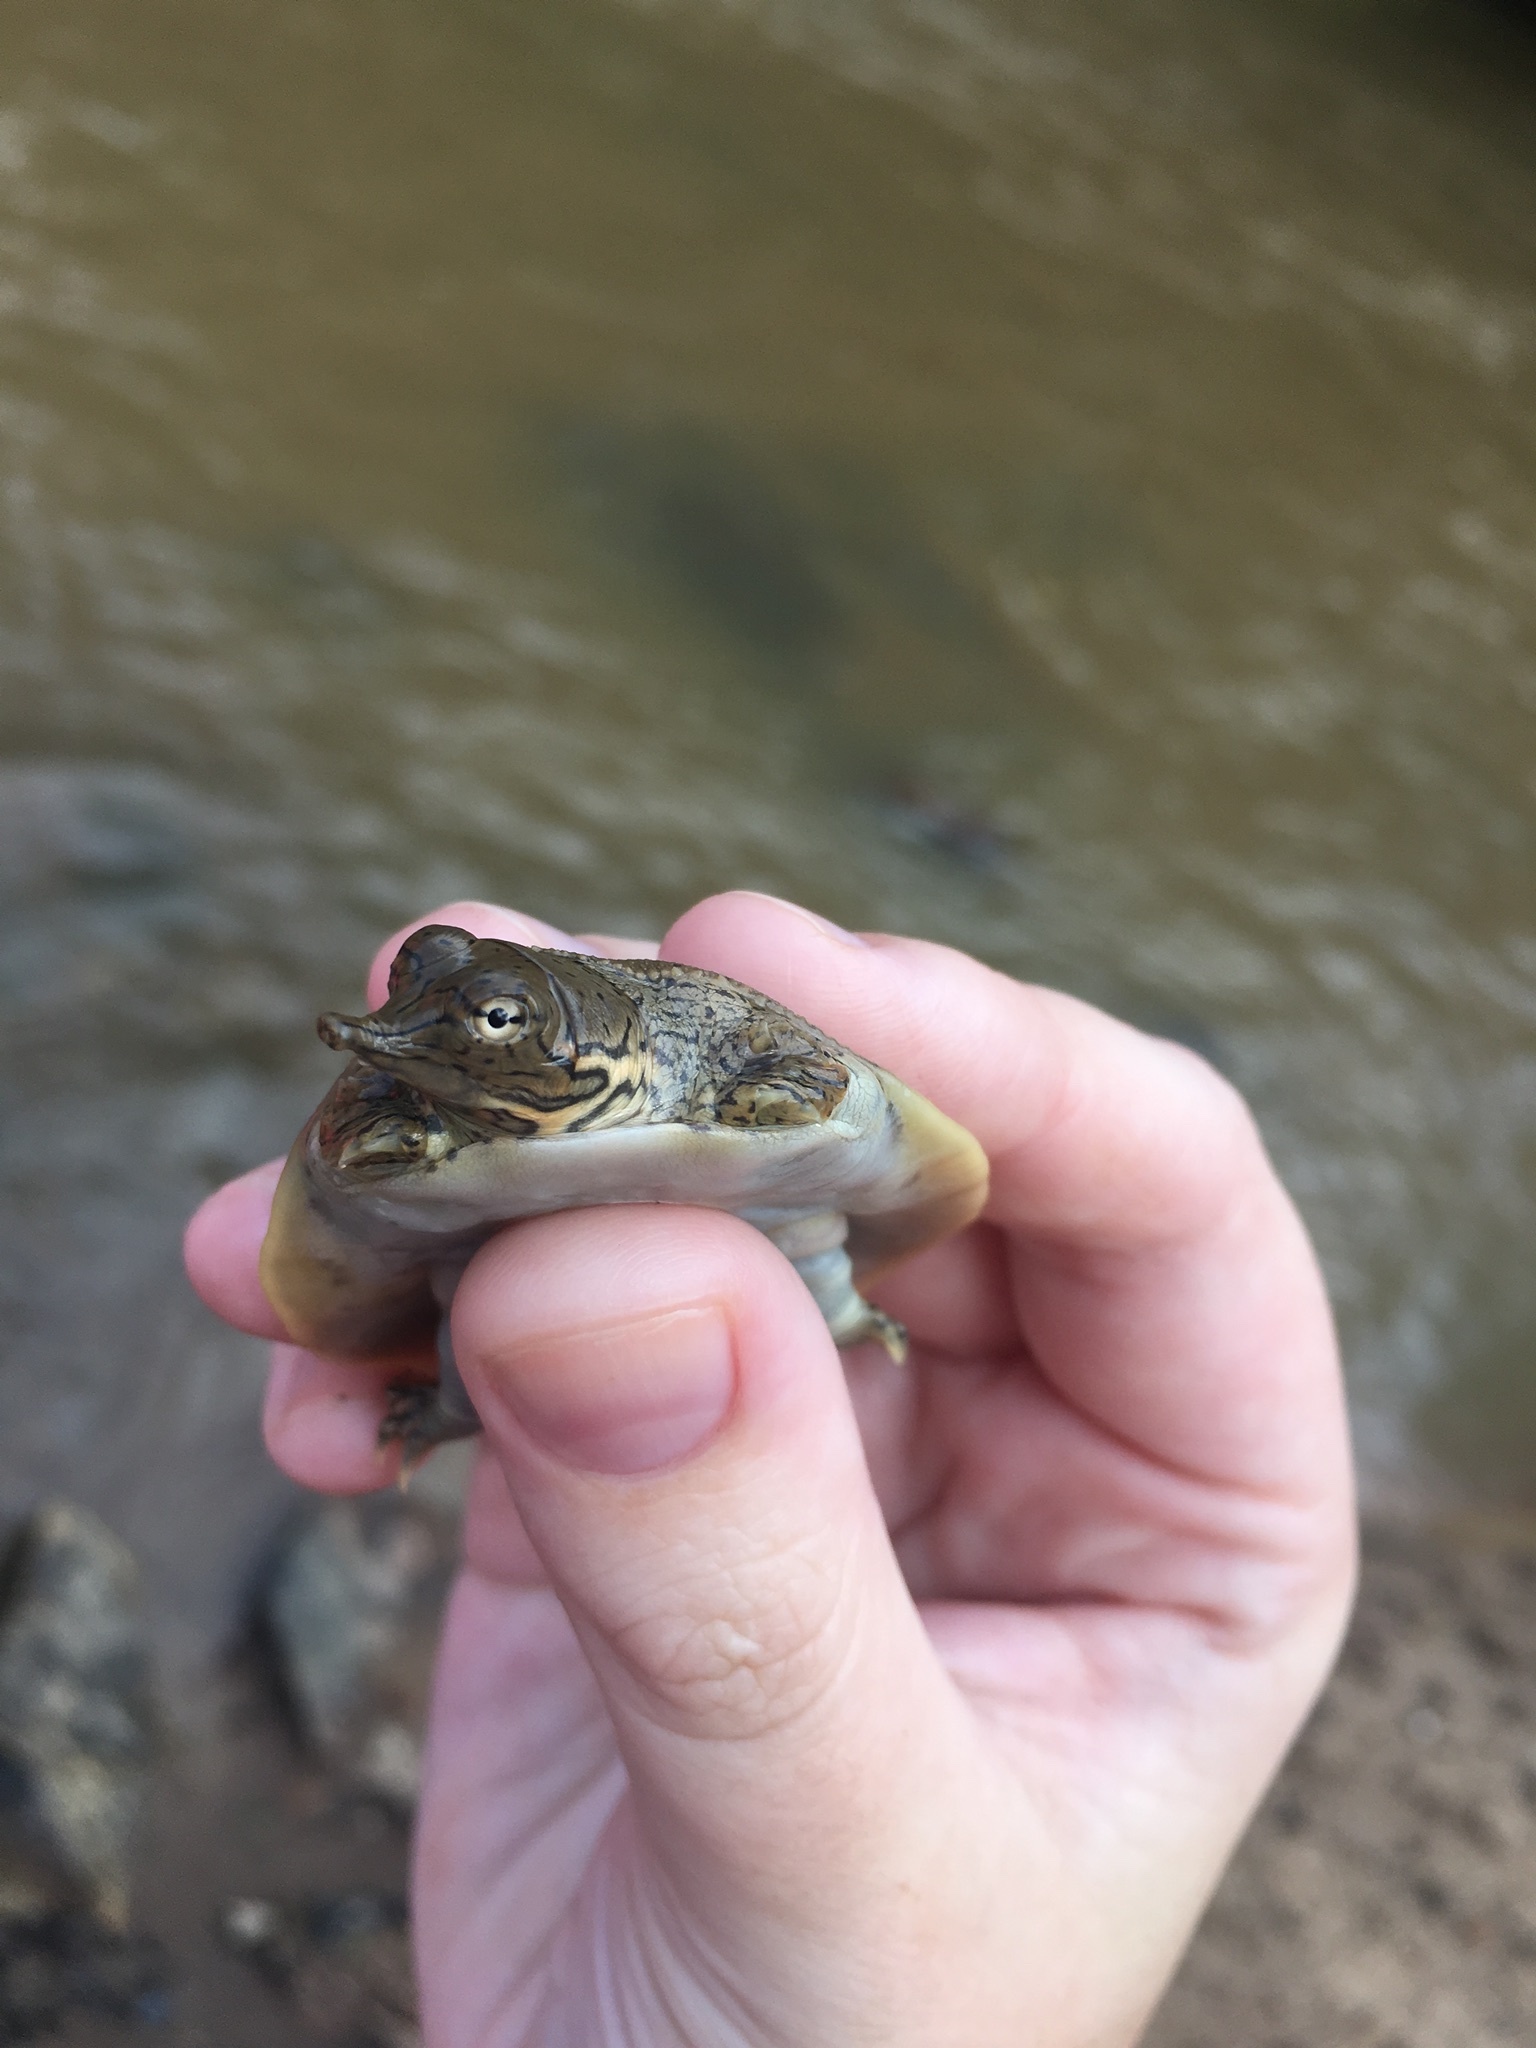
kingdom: Animalia
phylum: Chordata
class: Testudines
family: Trionychidae
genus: Apalone
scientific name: Apalone spinifera
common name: Spiny softshell turtle
